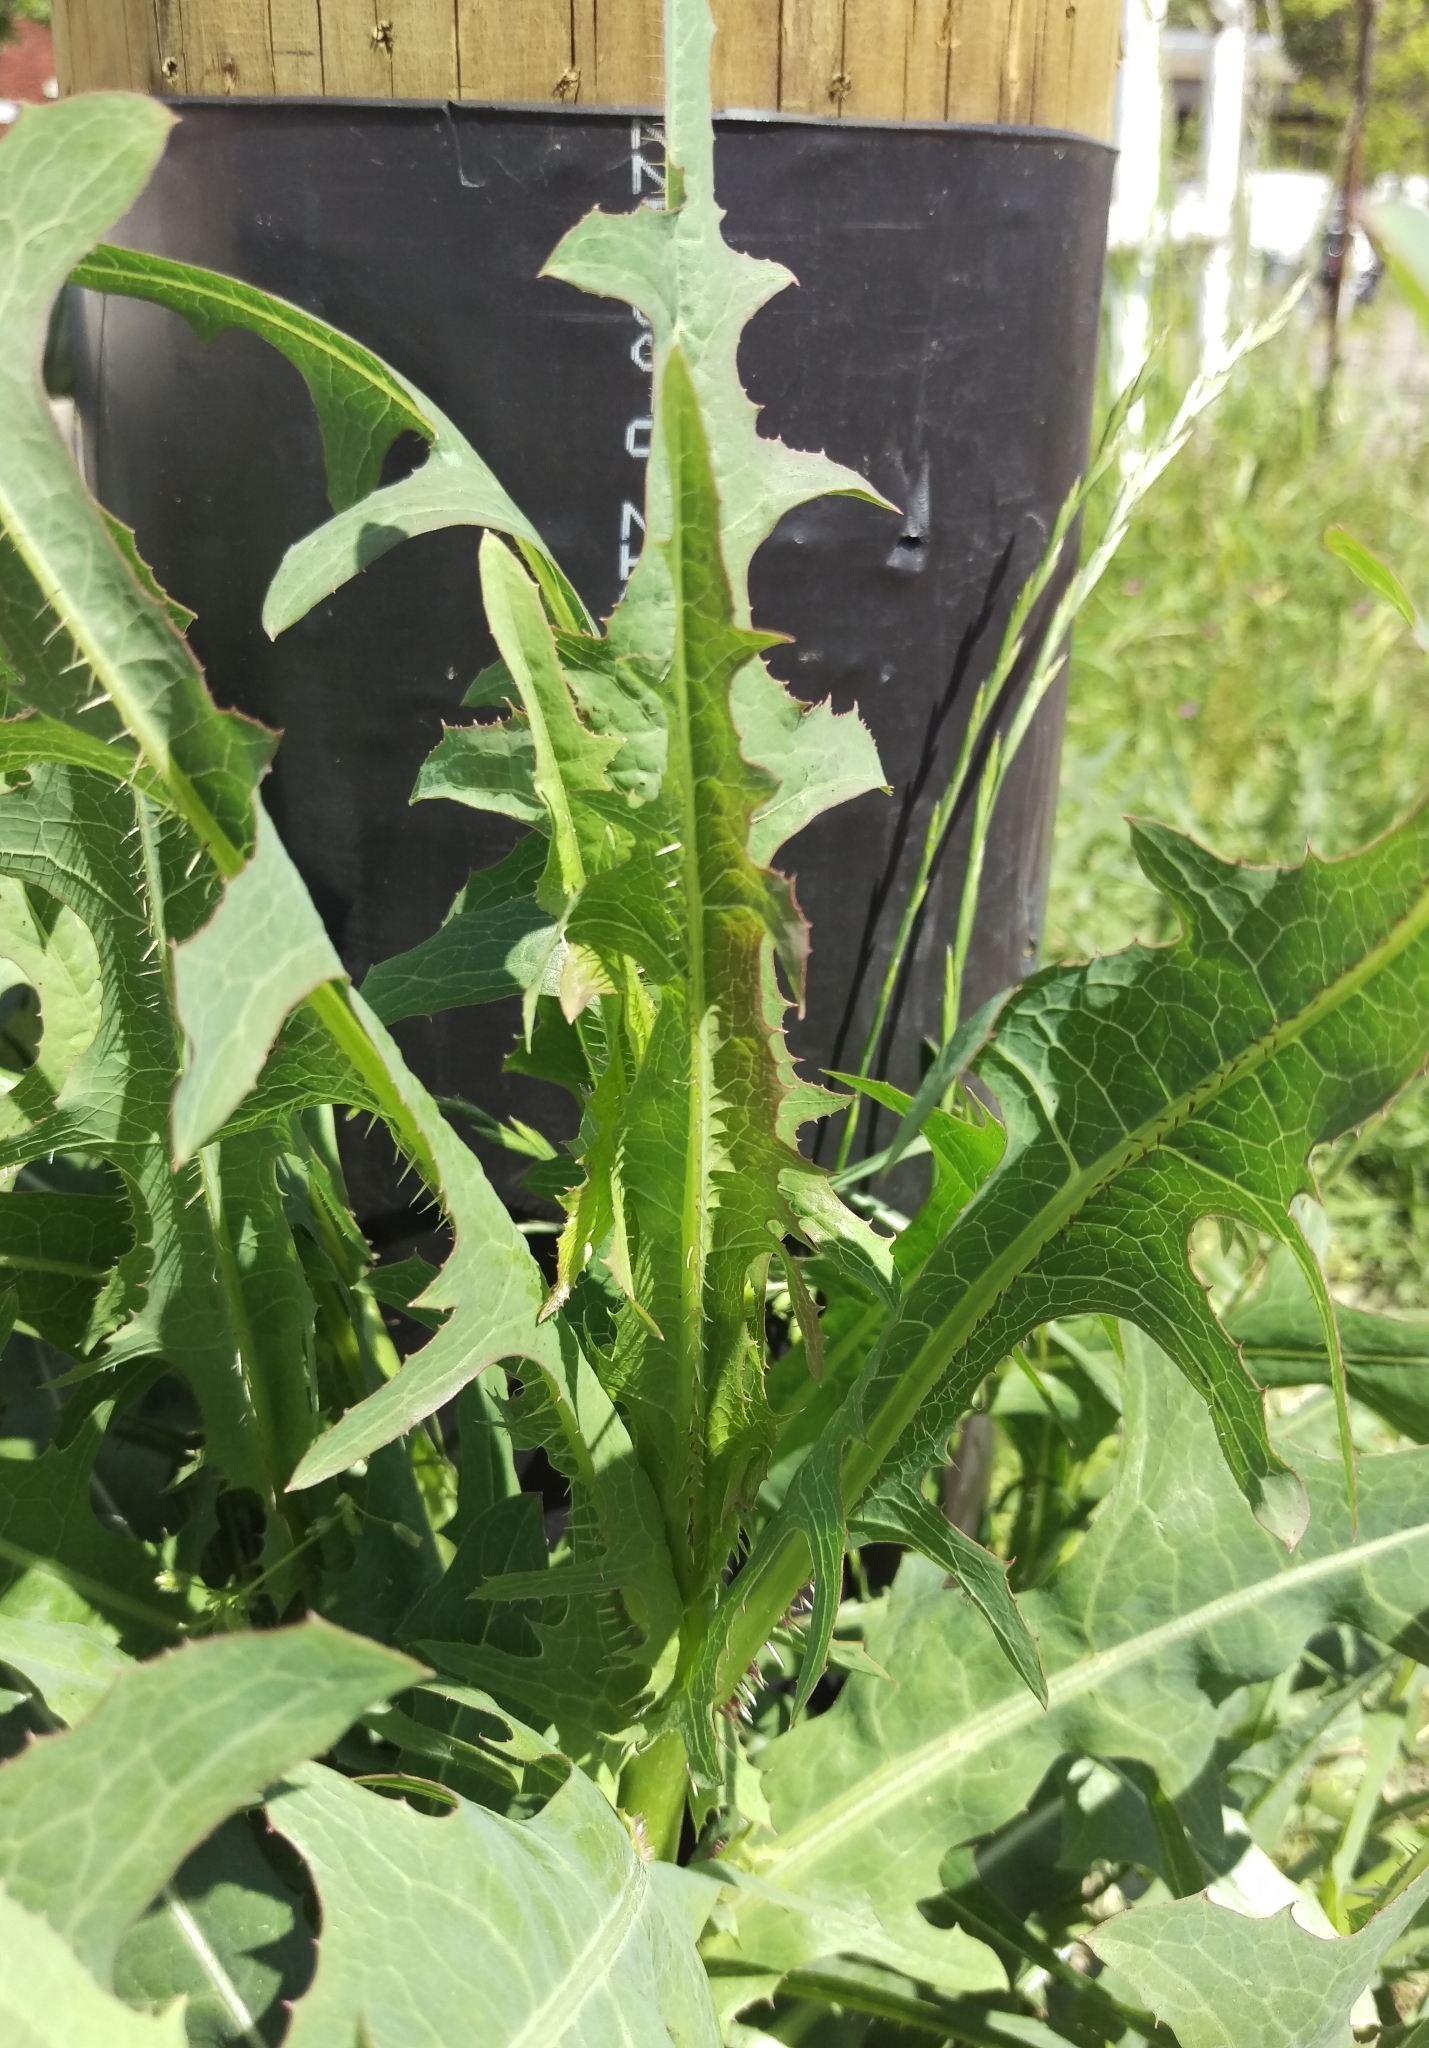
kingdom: Plantae
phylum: Tracheophyta
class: Magnoliopsida
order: Asterales
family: Asteraceae
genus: Lactuca
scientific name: Lactuca serriola
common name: Prickly lettuce
